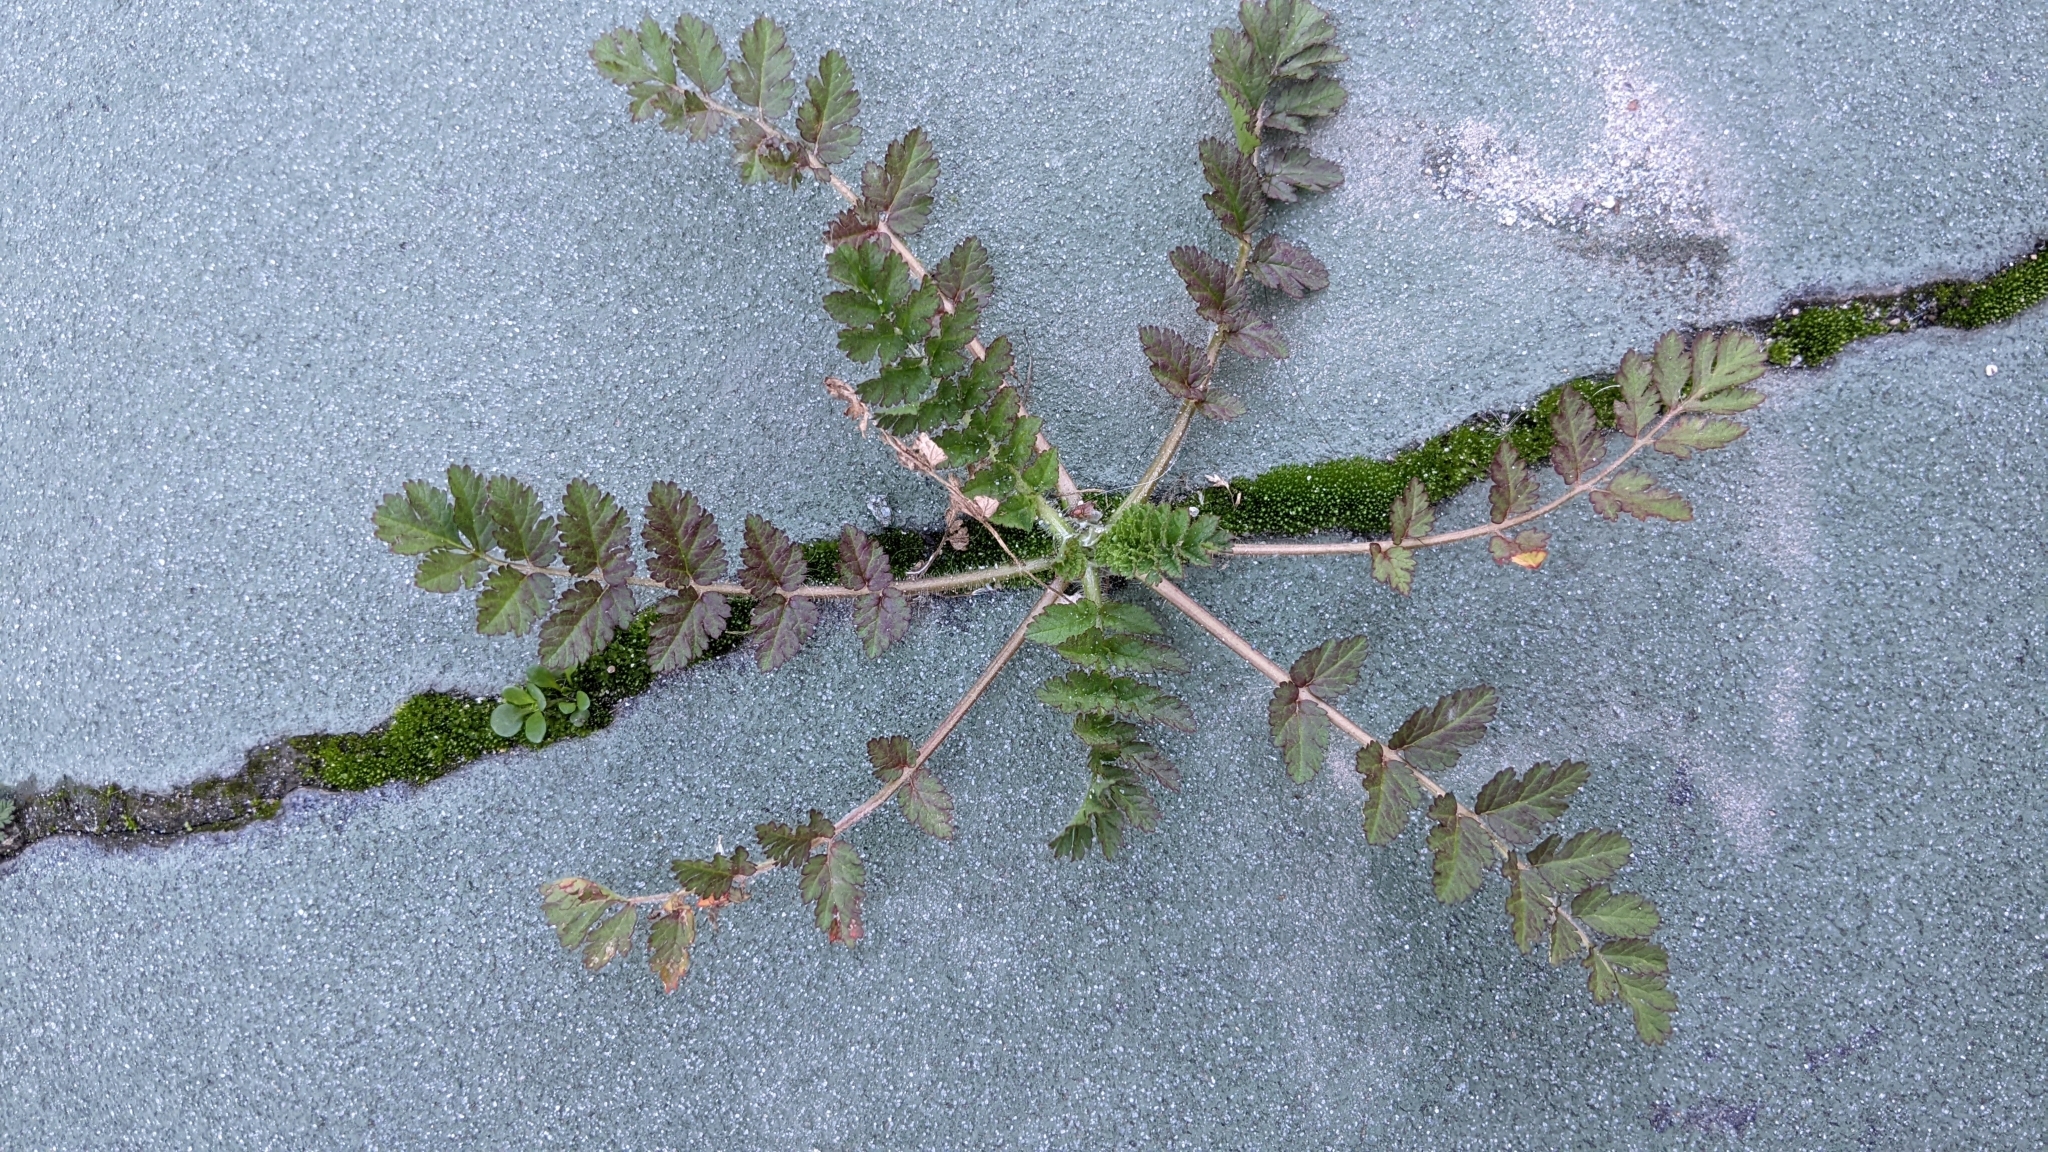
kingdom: Plantae
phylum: Tracheophyta
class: Magnoliopsida
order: Geraniales
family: Geraniaceae
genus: Erodium
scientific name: Erodium moschatum
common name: Musk stork's-bill
